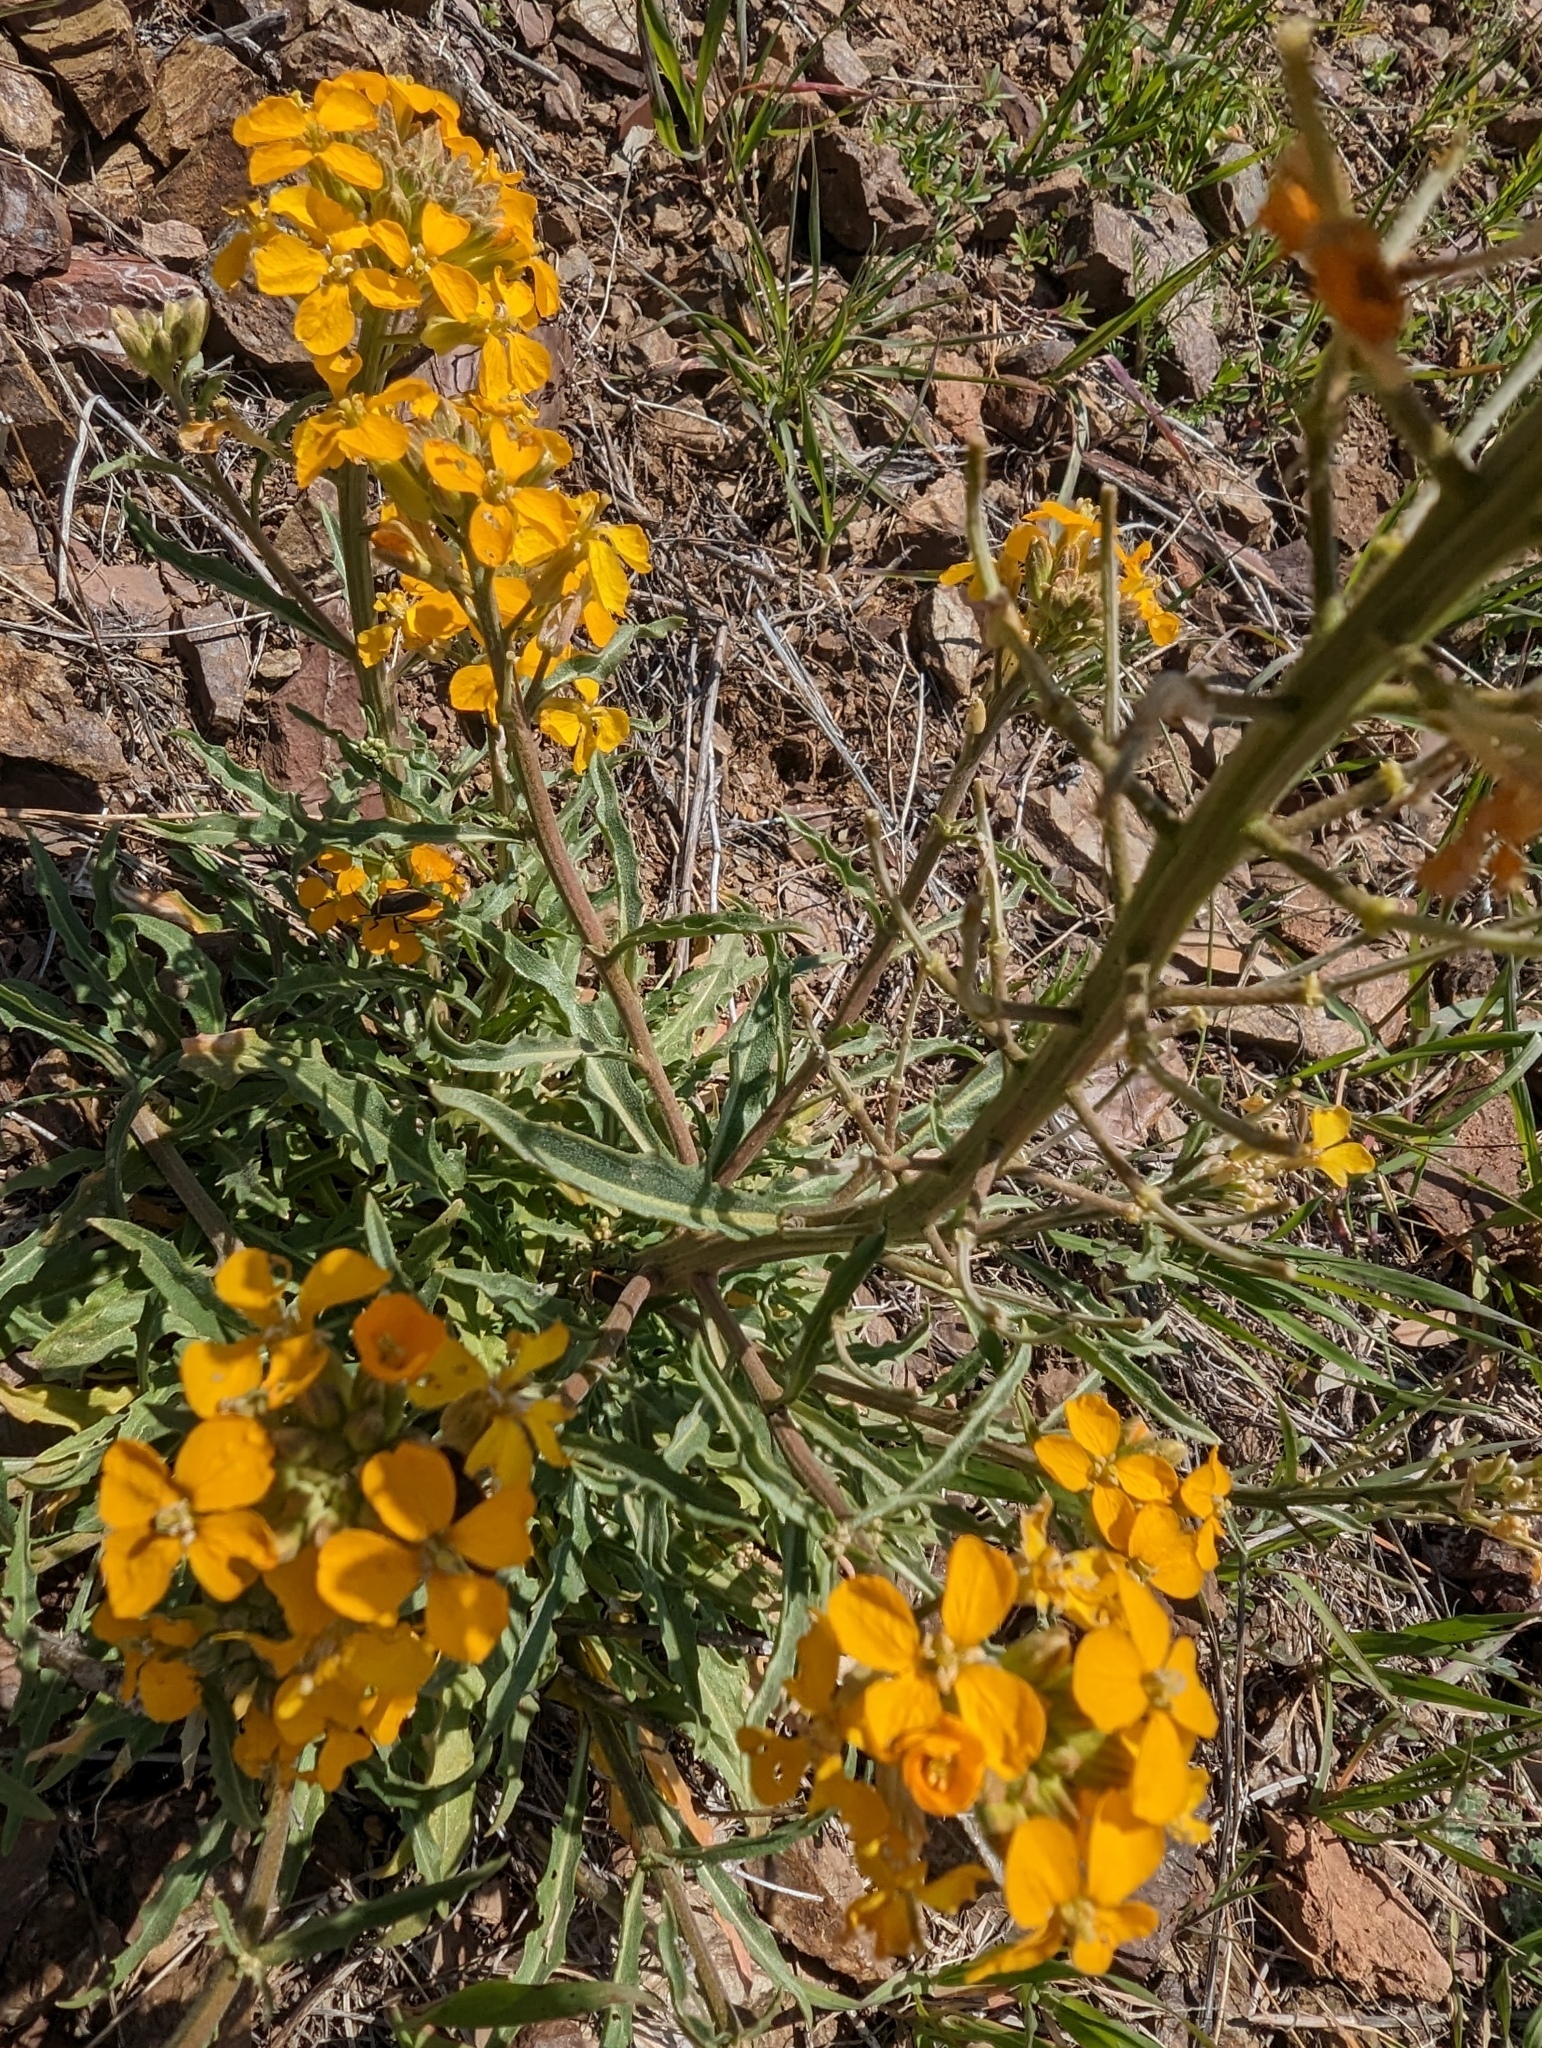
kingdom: Plantae
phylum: Tracheophyta
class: Magnoliopsida
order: Brassicales
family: Brassicaceae
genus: Erysimum
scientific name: Erysimum capitatum
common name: Western wallflower
